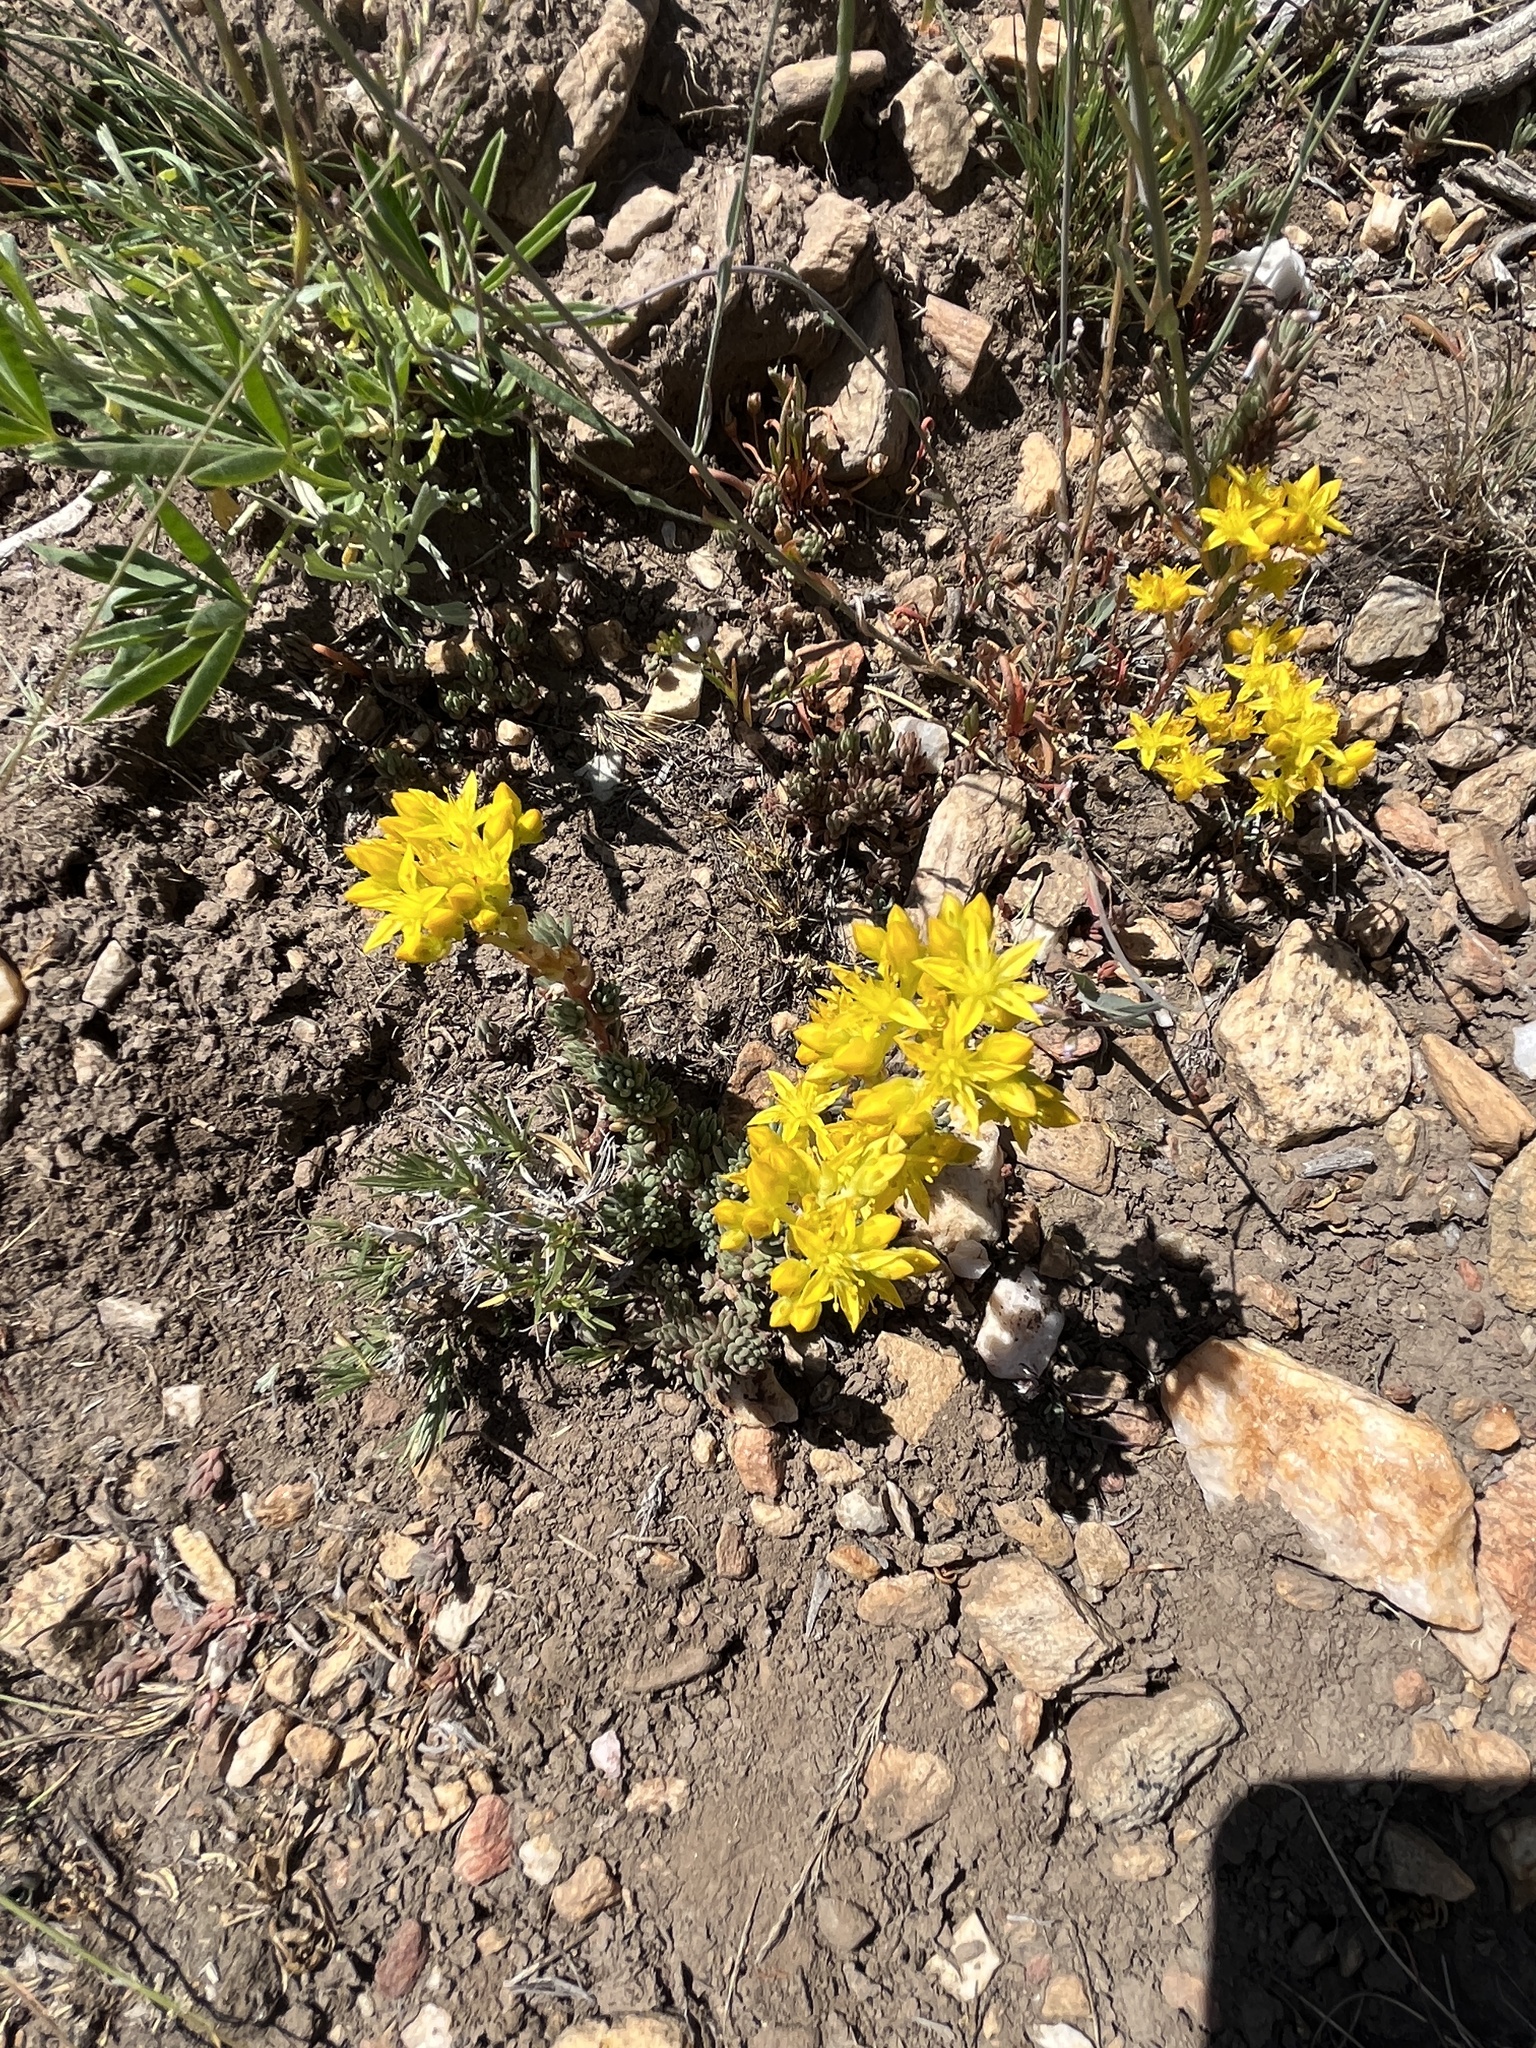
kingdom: Plantae
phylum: Tracheophyta
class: Magnoliopsida
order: Saxifragales
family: Crassulaceae
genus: Sedum
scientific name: Sedum lanceolatum
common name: Common stonecrop
